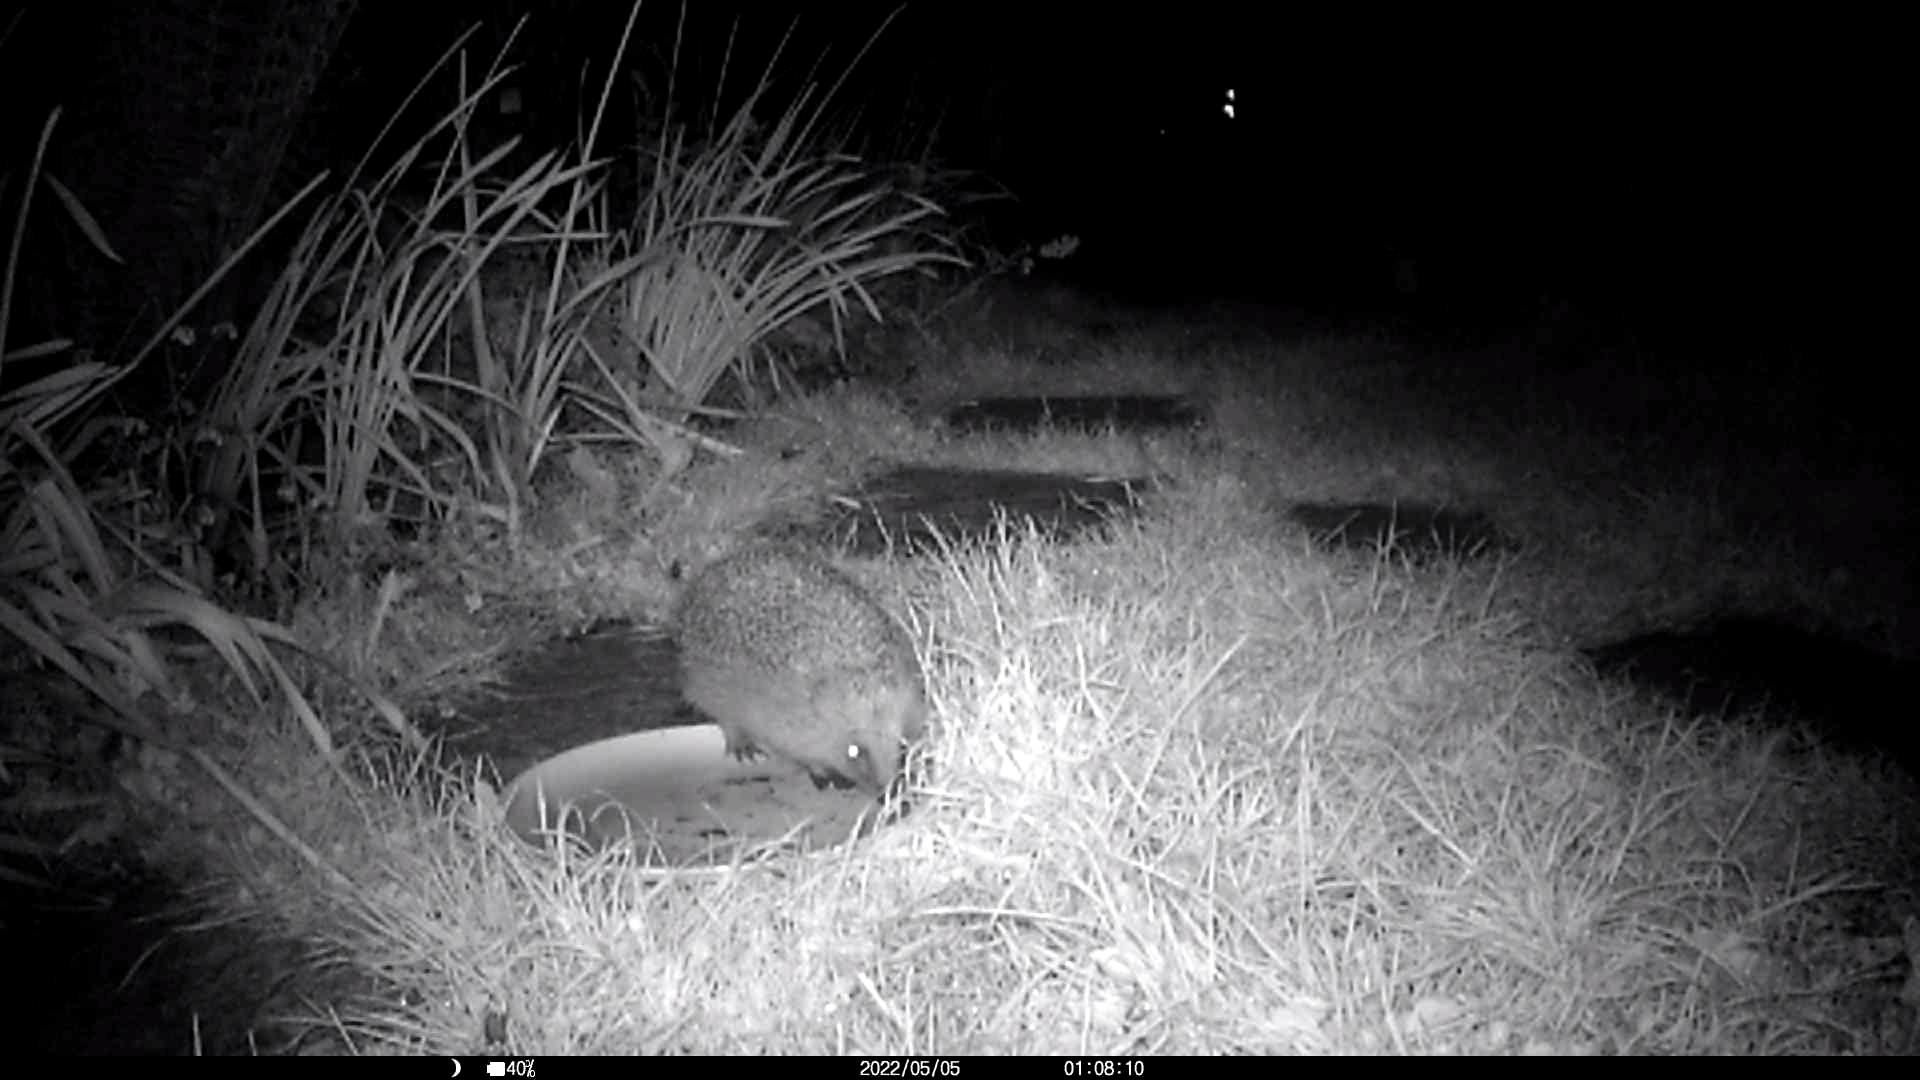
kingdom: Animalia
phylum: Chordata
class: Mammalia
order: Erinaceomorpha
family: Erinaceidae
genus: Erinaceus
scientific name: Erinaceus europaeus
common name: West european hedgehog
